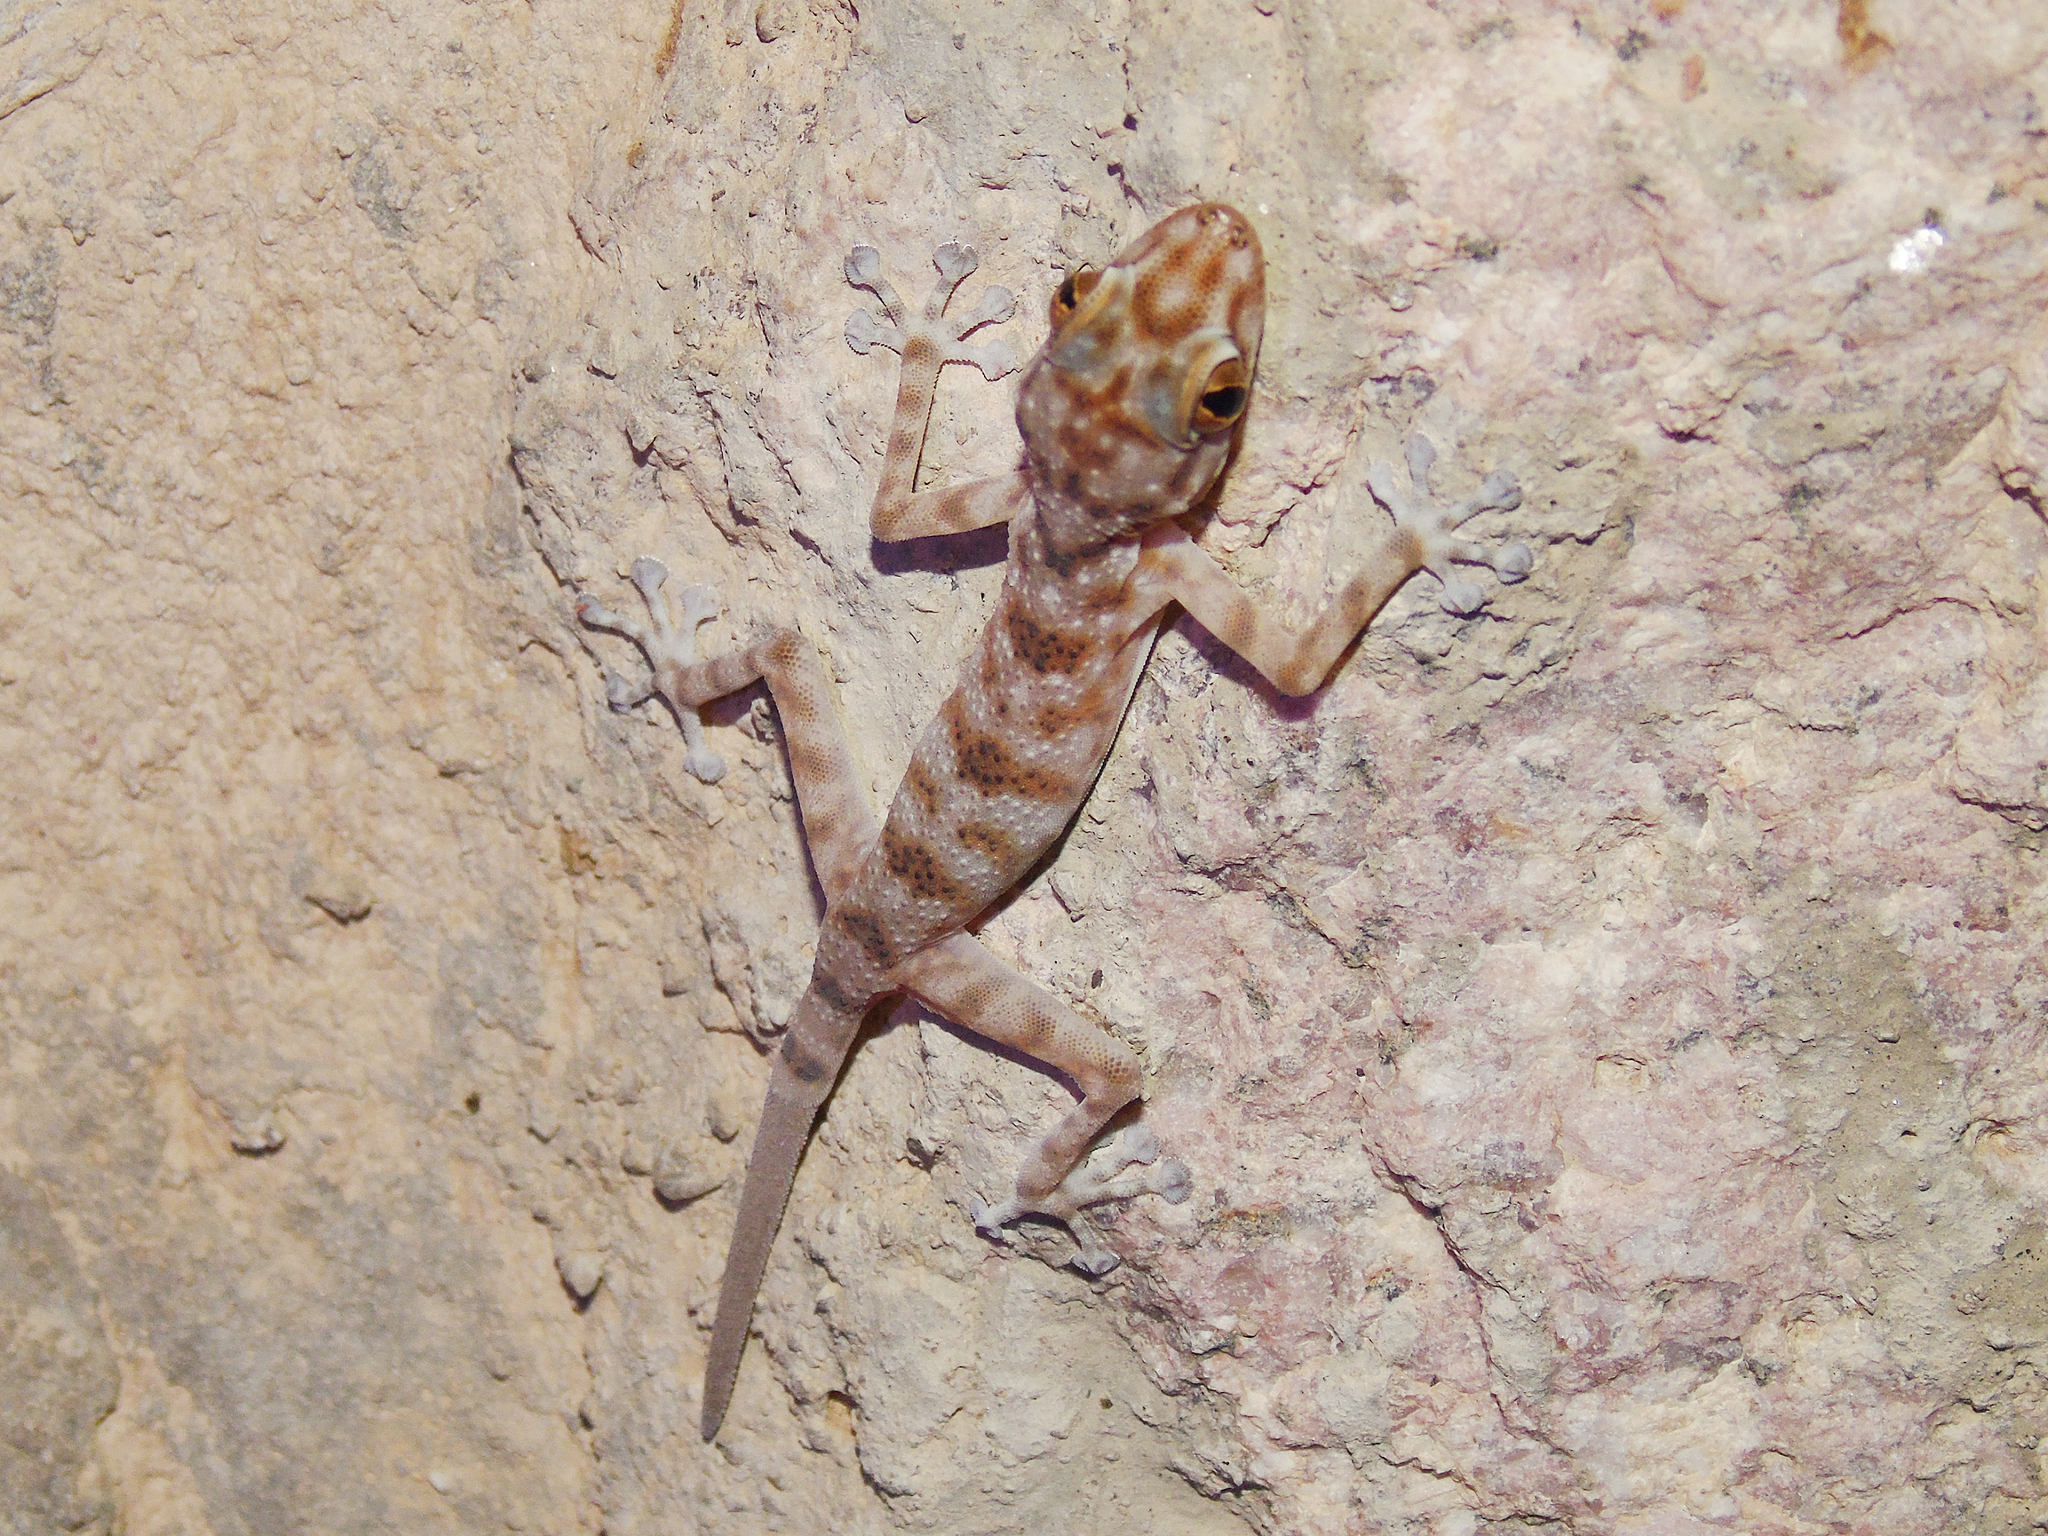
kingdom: Animalia
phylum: Chordata
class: Squamata
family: Phyllodactylidae
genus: Ptyodactylus
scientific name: Ptyodactylus hasselquistii
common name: Hasselquist’s fan-footed gecko
